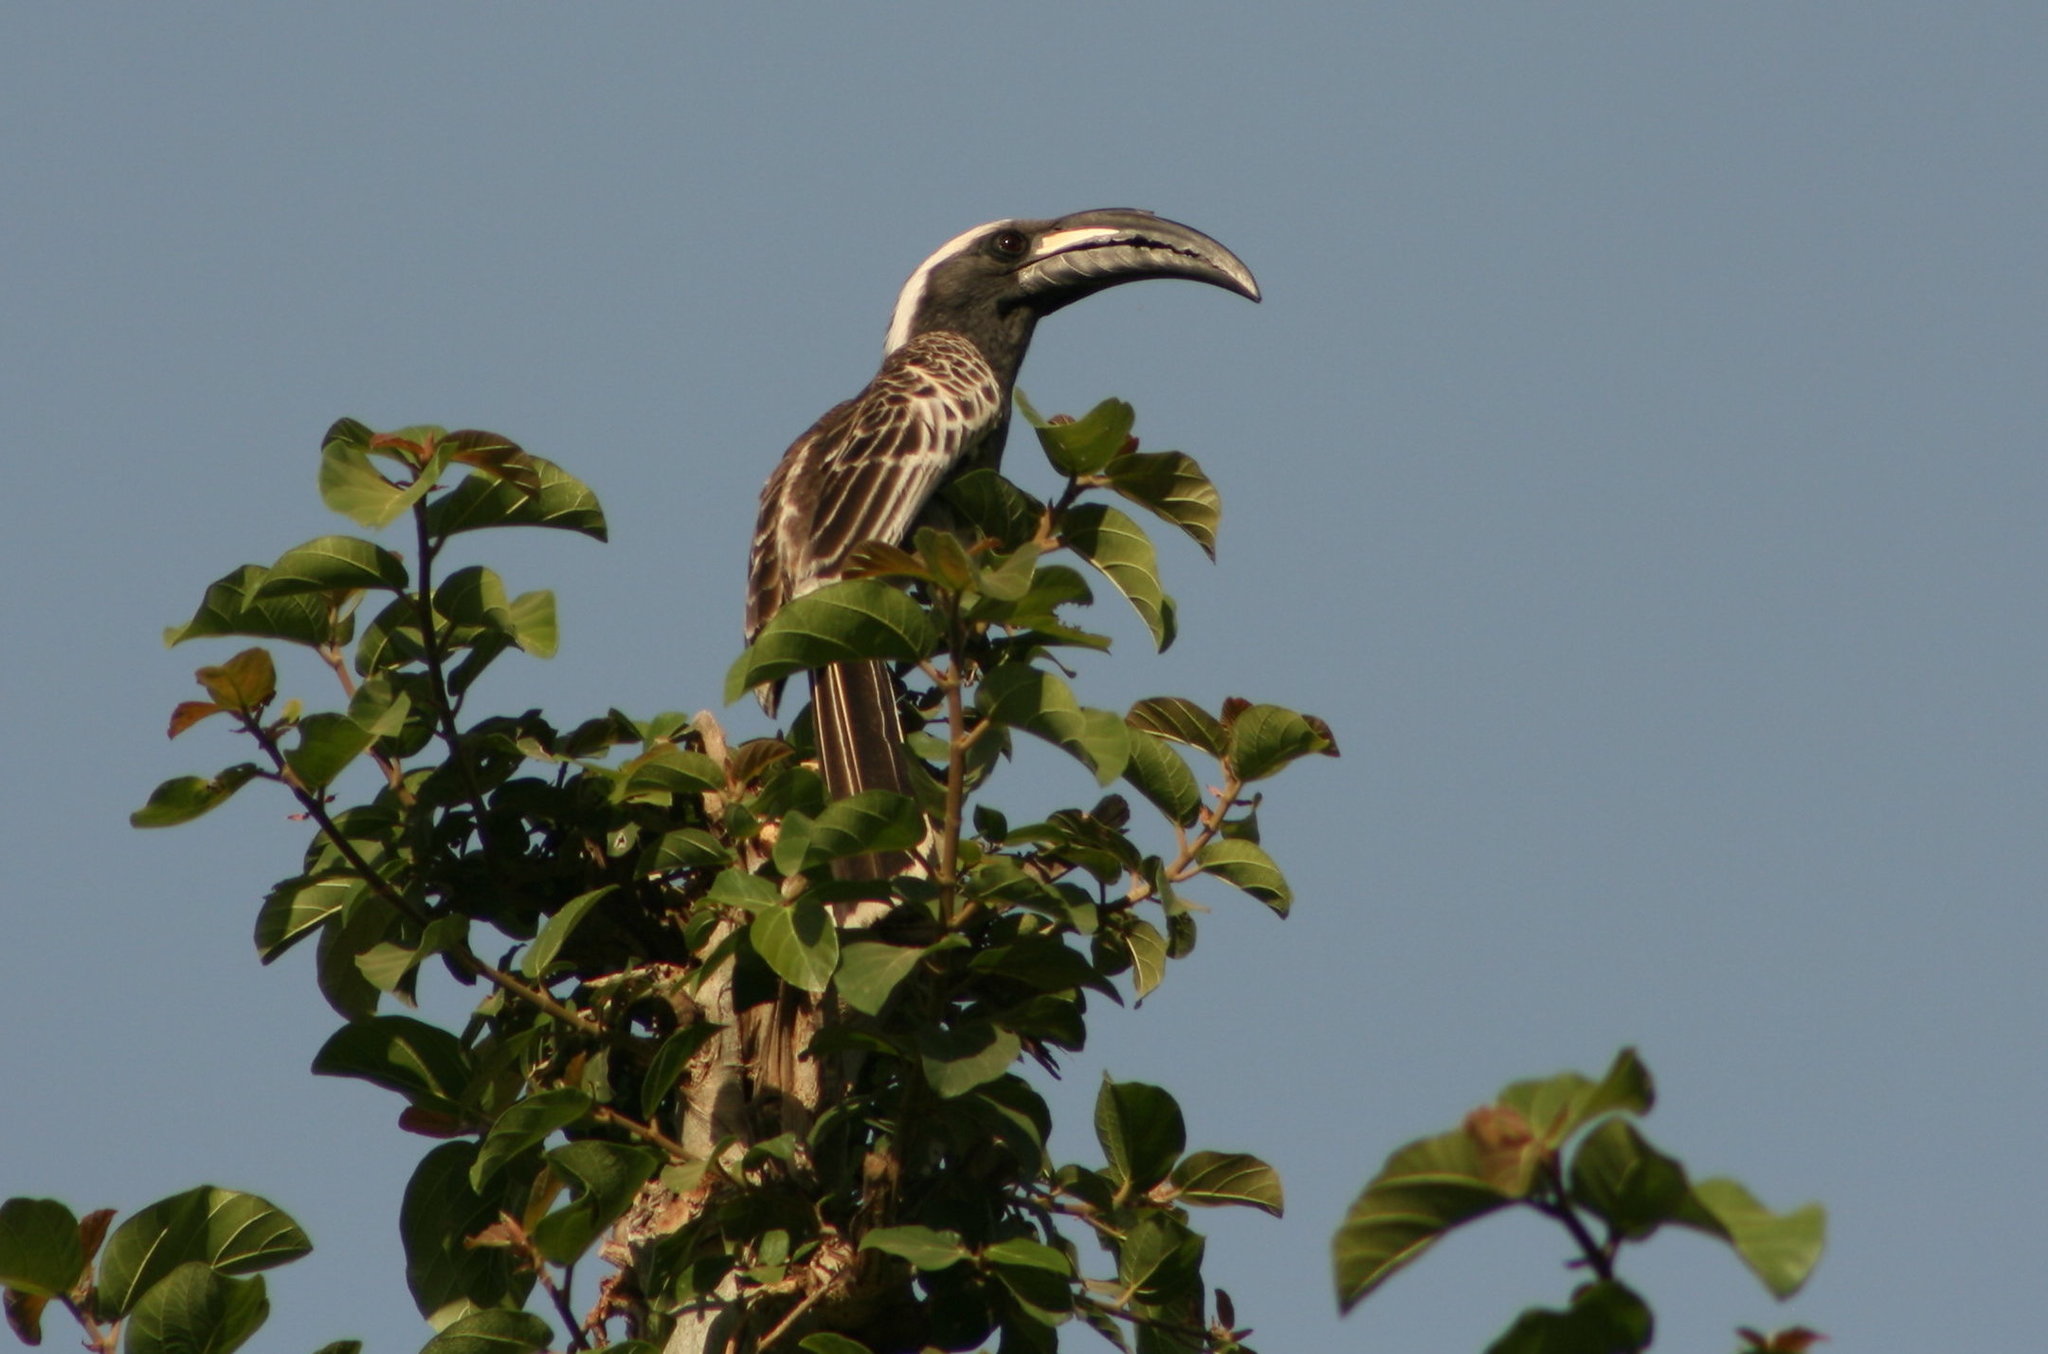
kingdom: Animalia
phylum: Chordata
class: Aves
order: Bucerotiformes
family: Bucerotidae
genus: Lophoceros
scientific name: Lophoceros nasutus
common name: African grey hornbill
